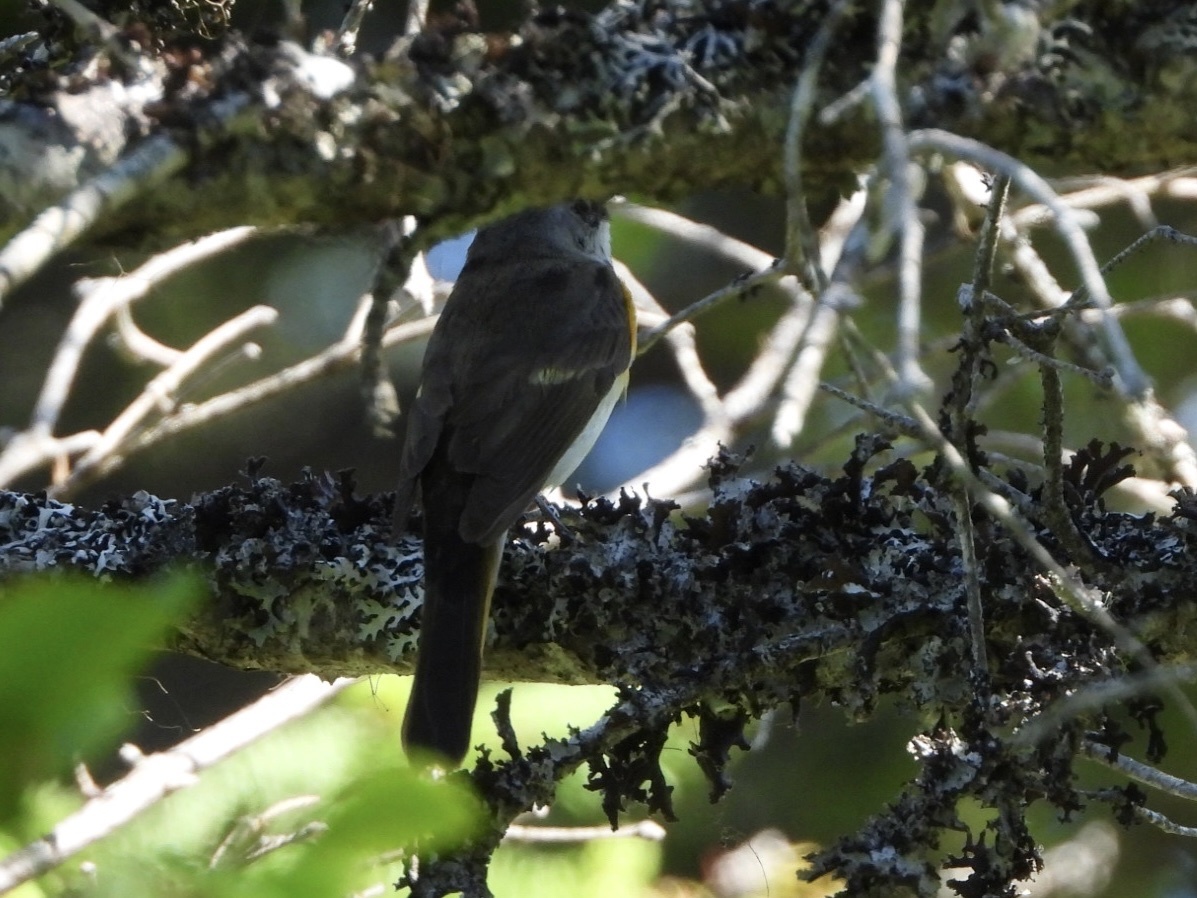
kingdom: Animalia
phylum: Chordata
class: Aves
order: Passeriformes
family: Parulidae
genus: Setophaga
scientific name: Setophaga ruticilla
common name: American redstart
